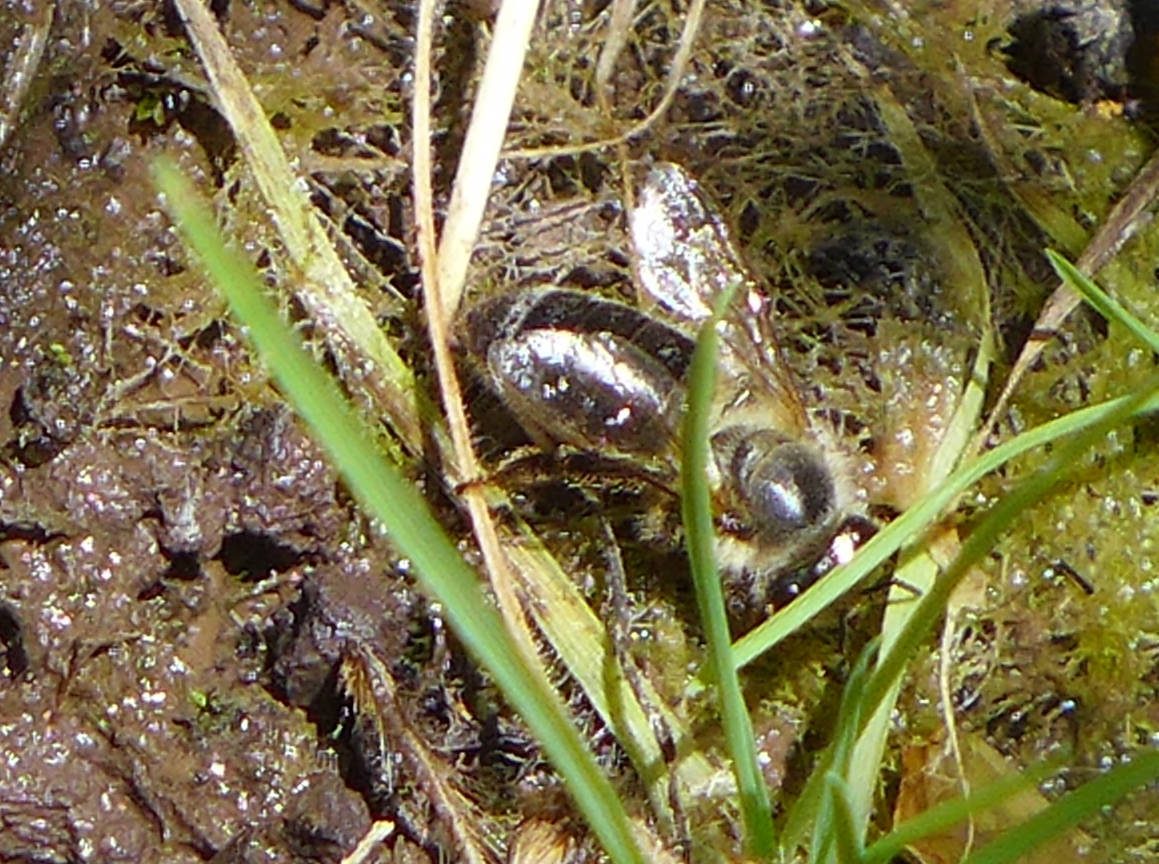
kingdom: Animalia
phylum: Arthropoda
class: Insecta
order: Hymenoptera
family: Apidae
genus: Apis
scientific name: Apis mellifera
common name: Honey bee
